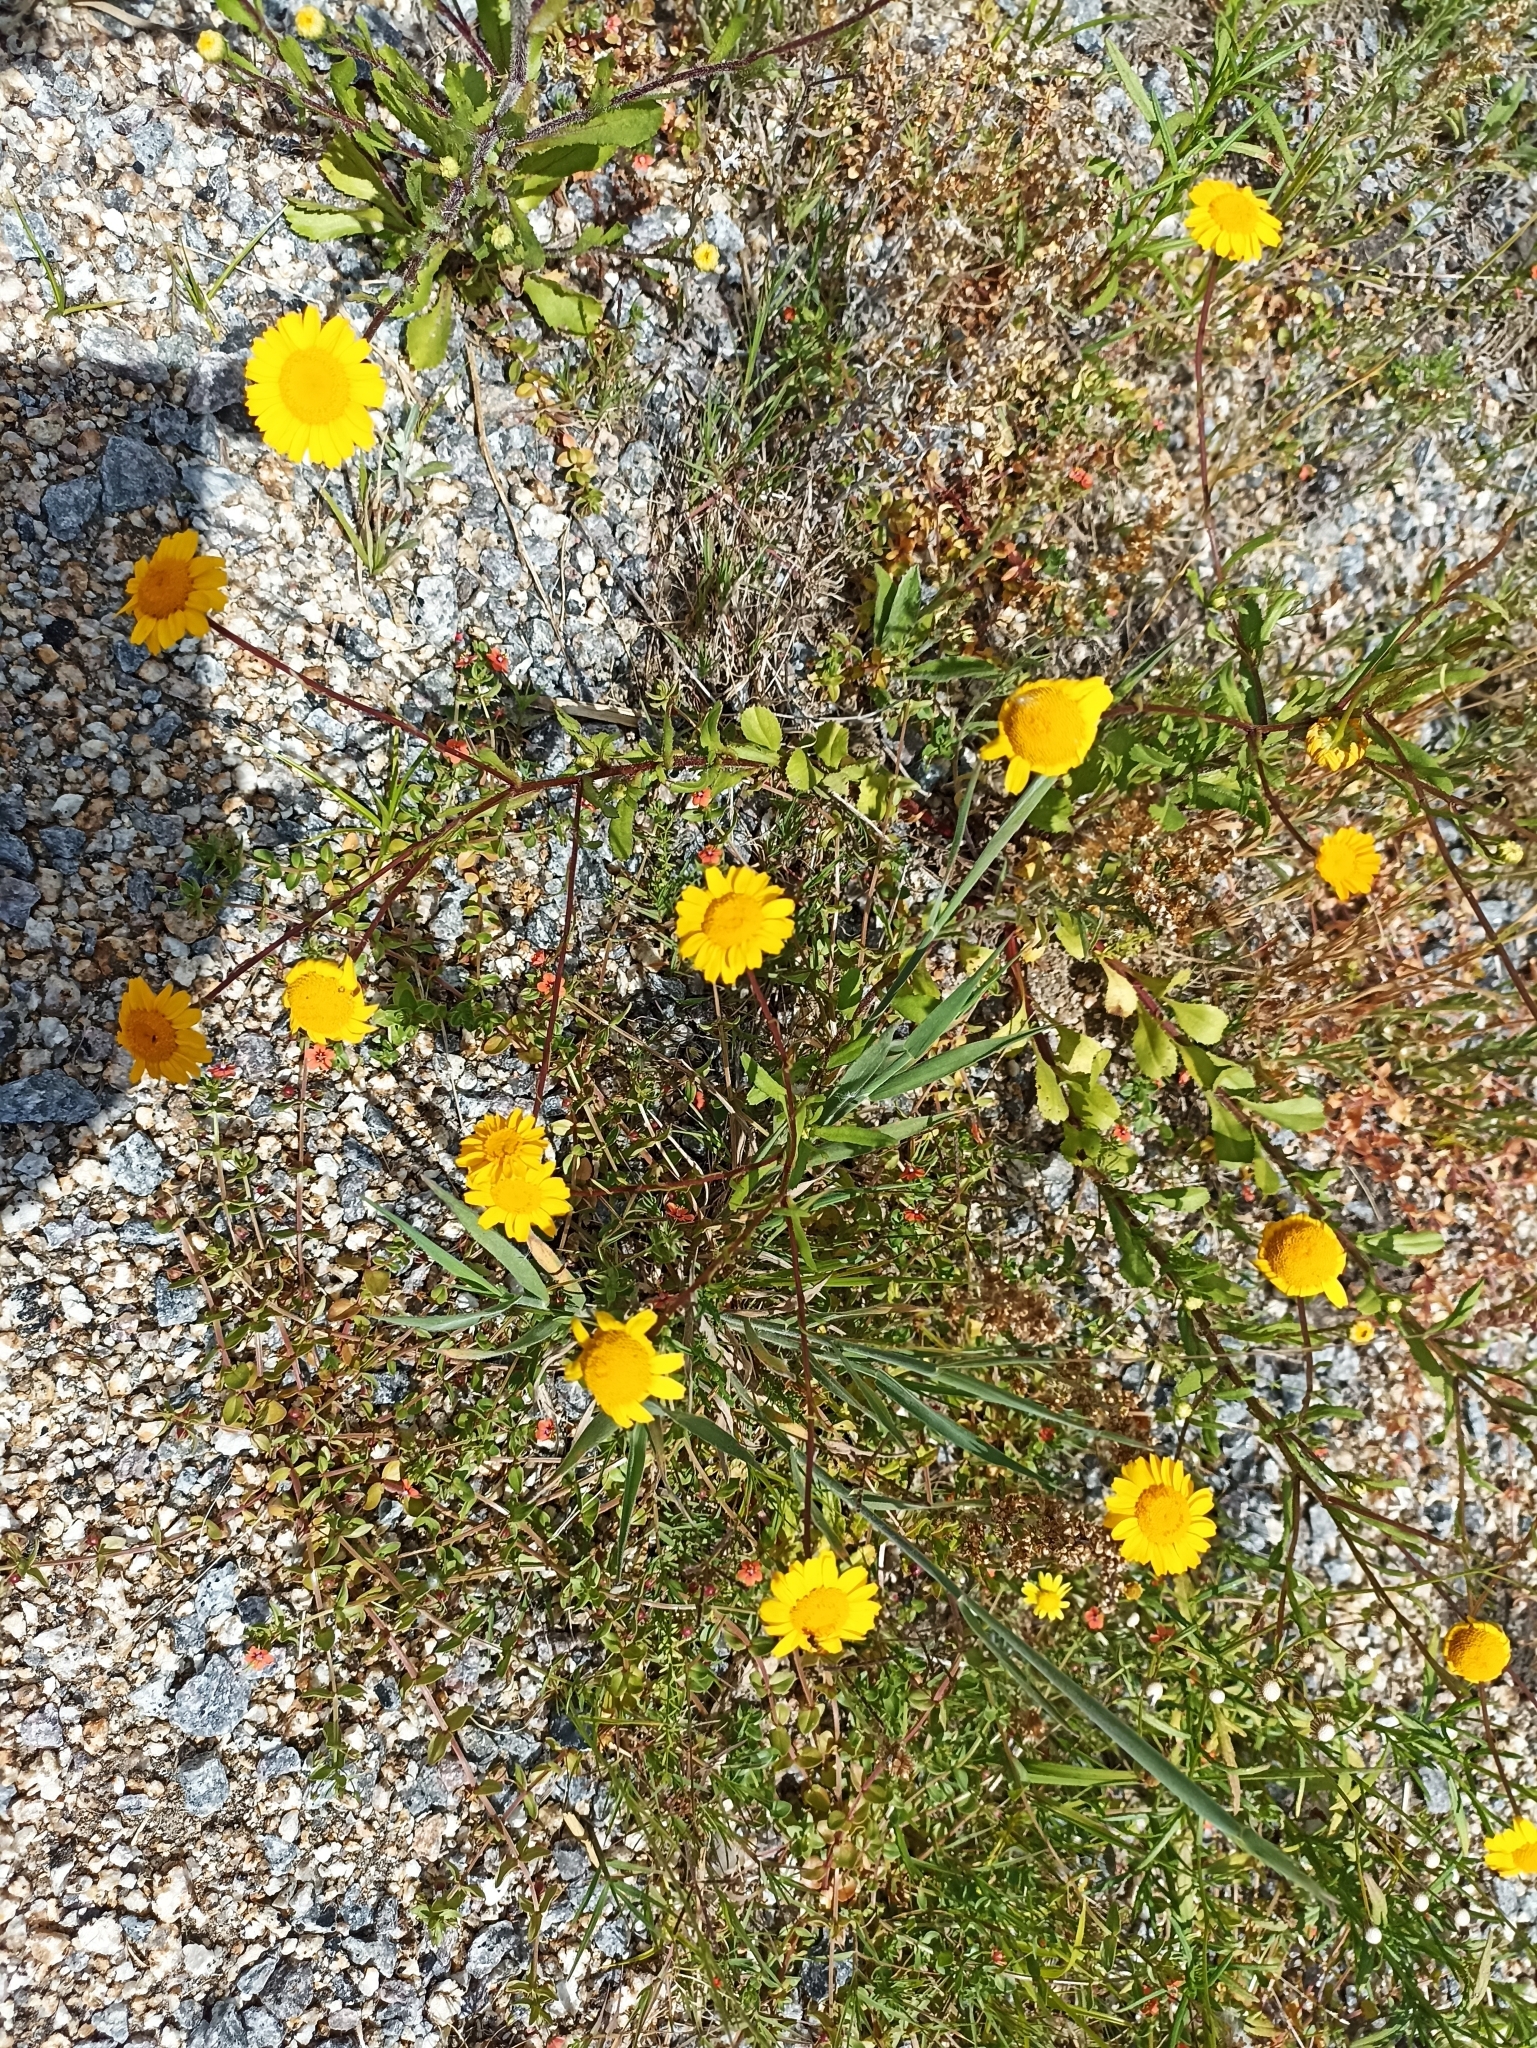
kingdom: Plantae
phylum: Tracheophyta
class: Magnoliopsida
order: Asterales
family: Asteraceae
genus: Coleostephus
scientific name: Coleostephus myconis
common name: Mediterranean marigold
